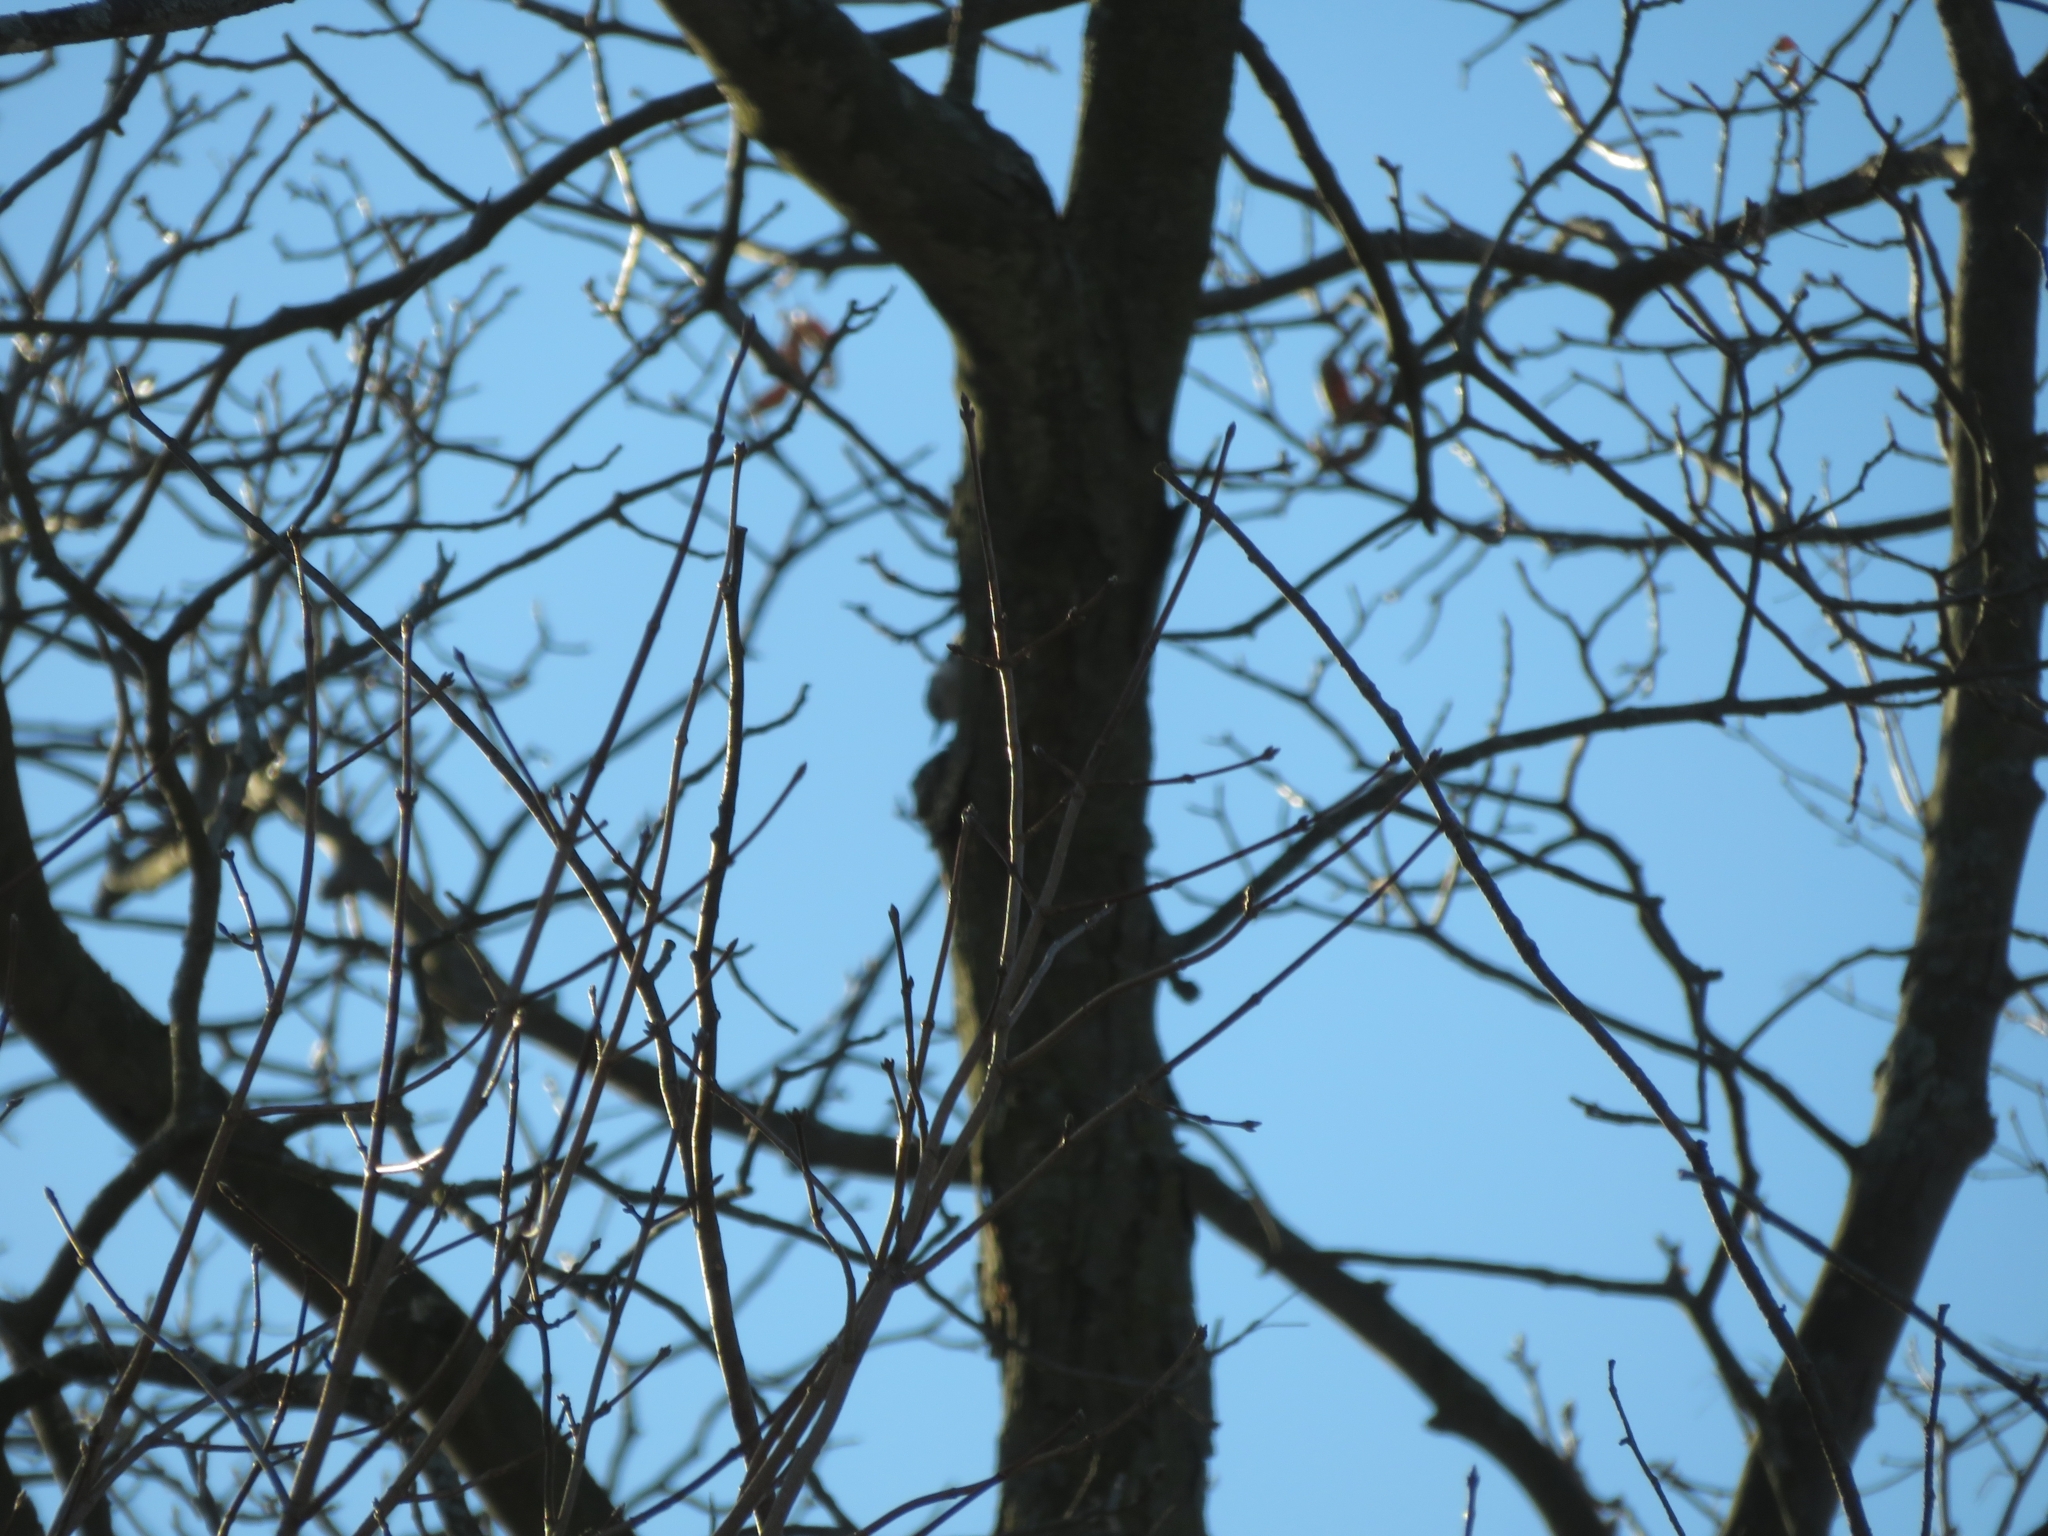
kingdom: Animalia
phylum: Chordata
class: Aves
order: Passeriformes
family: Sittidae
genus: Sitta
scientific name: Sitta carolinensis
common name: White-breasted nuthatch
